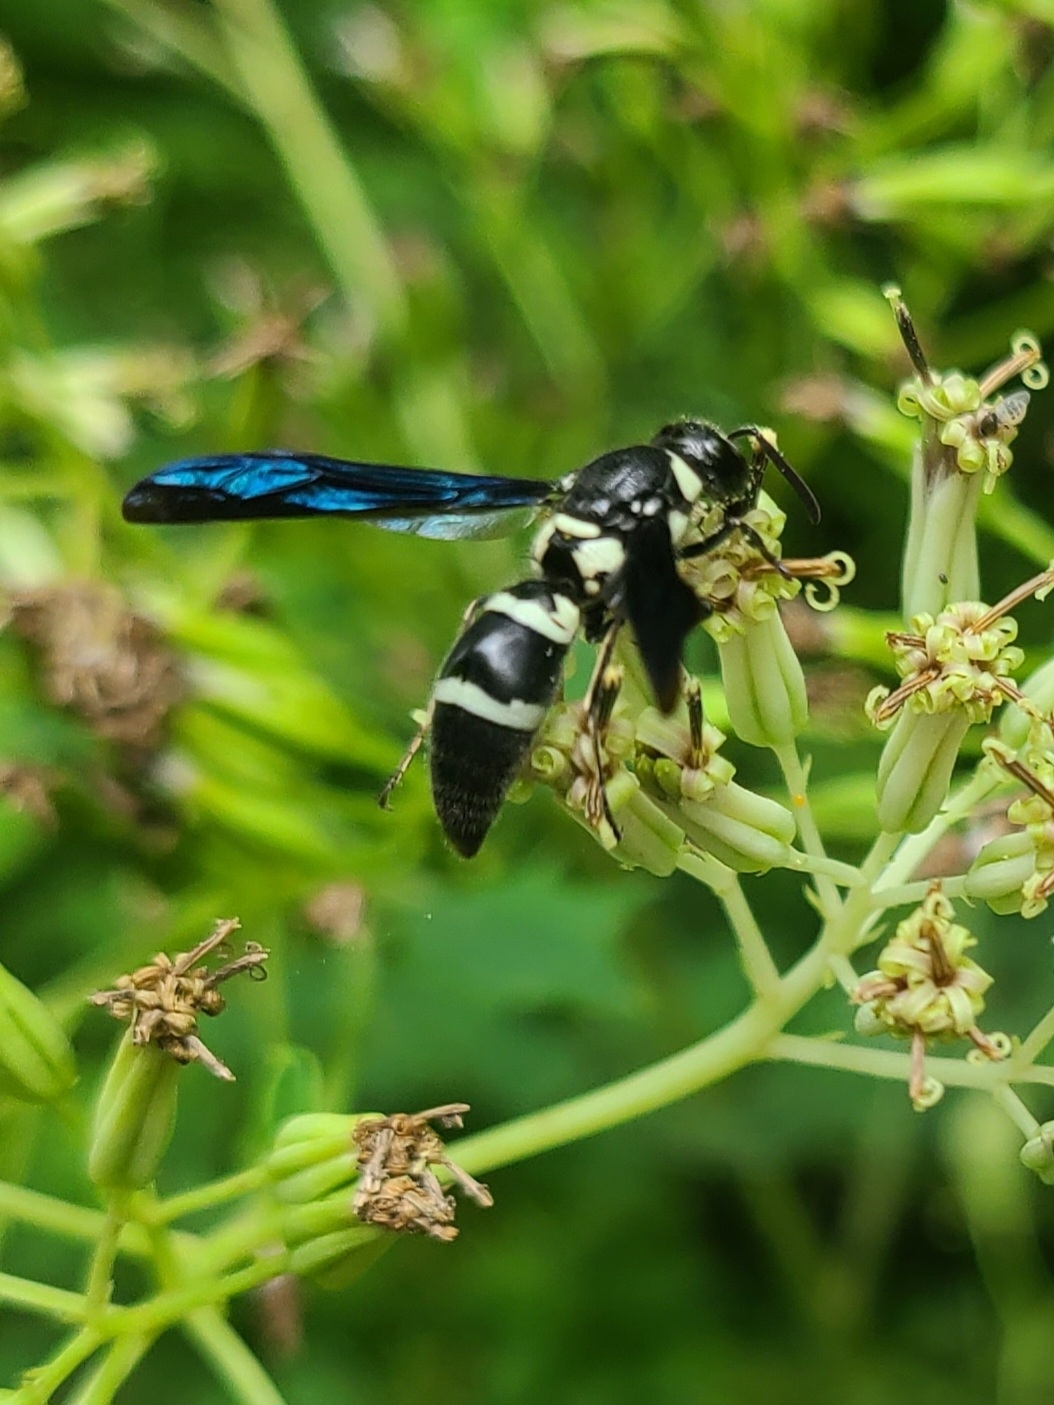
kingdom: Animalia
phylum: Arthropoda
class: Insecta
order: Hymenoptera
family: Eumenidae
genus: Pseudodynerus
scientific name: Pseudodynerus quadrisectus
